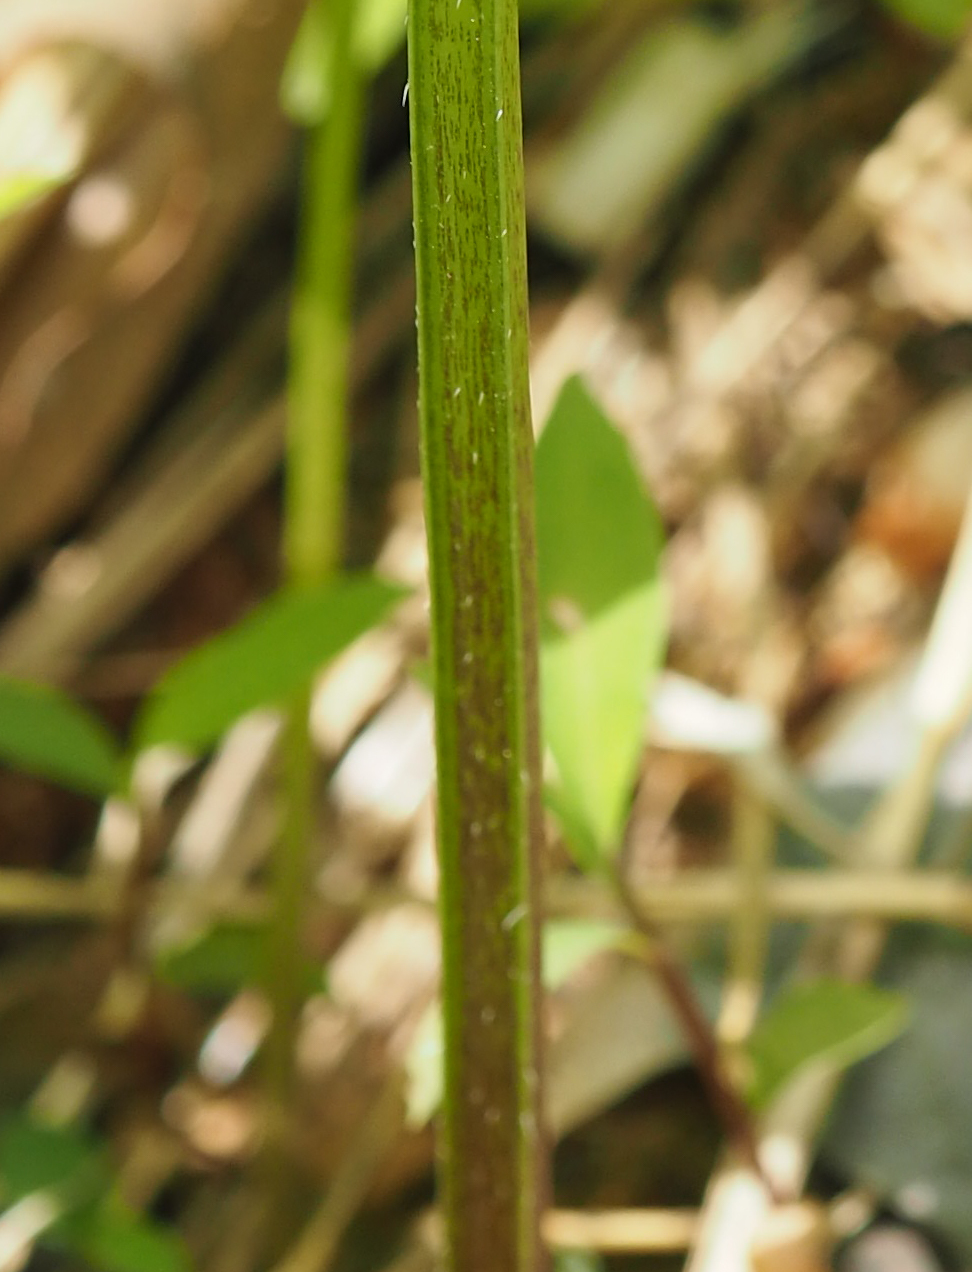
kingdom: Plantae
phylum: Tracheophyta
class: Magnoliopsida
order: Boraginales
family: Hydrophyllaceae
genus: Hydrophyllum
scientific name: Hydrophyllum virginianum
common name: Virginia waterleaf
